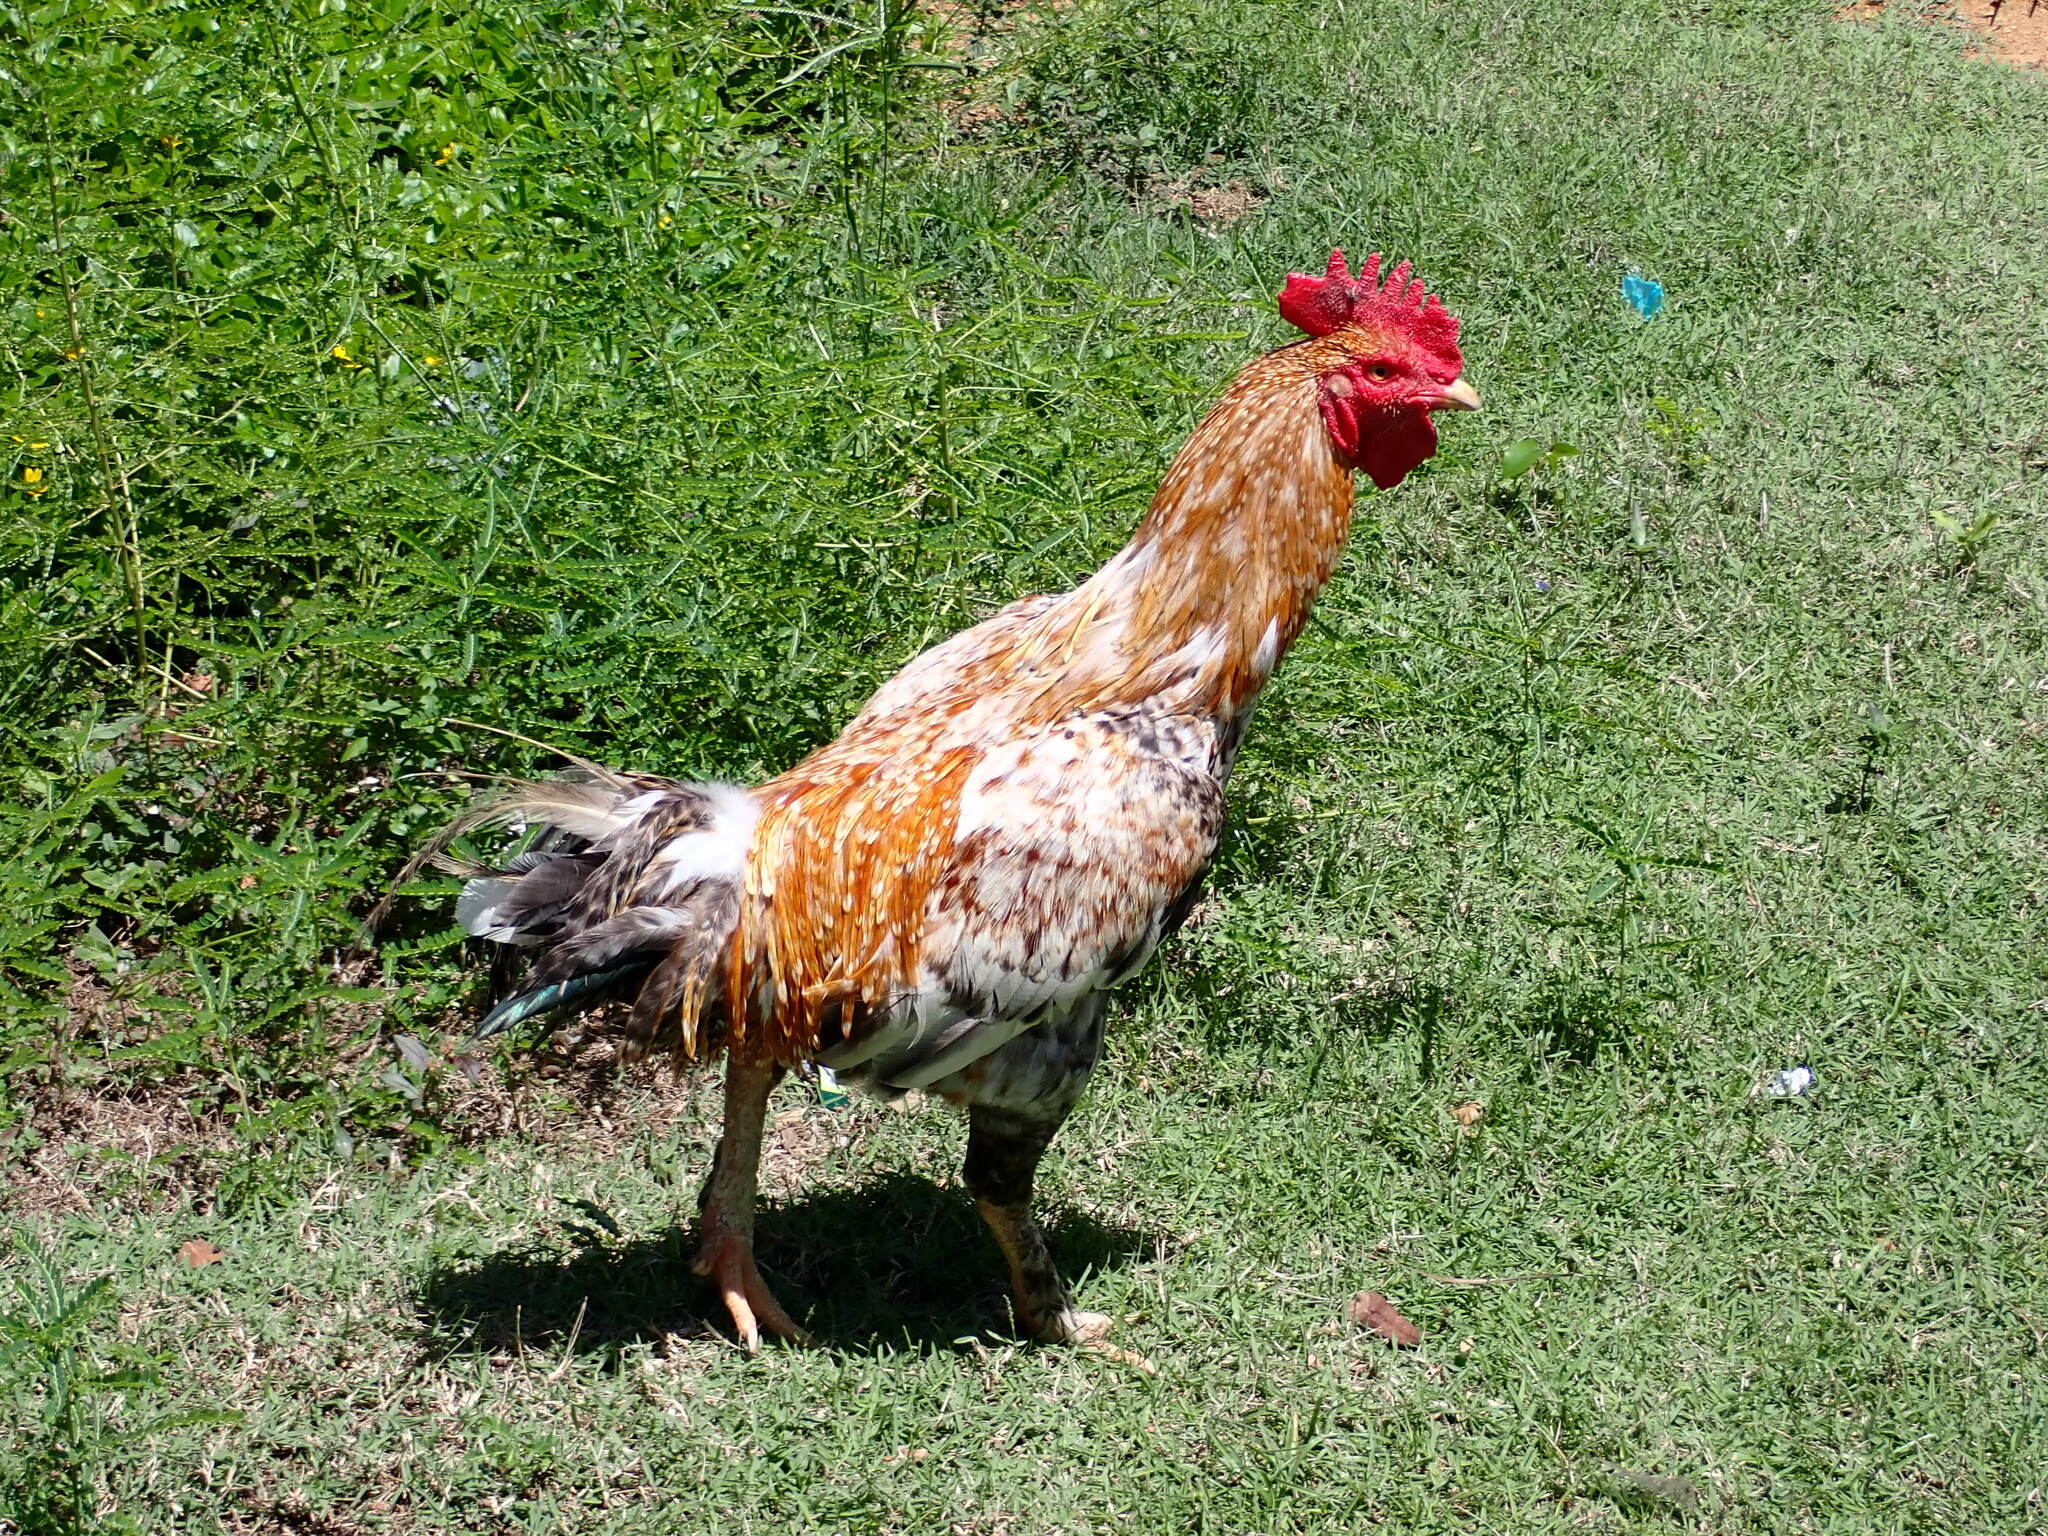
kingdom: Animalia
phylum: Chordata
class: Aves
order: Galliformes
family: Phasianidae
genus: Gallus
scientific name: Gallus gallus
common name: Red junglefowl
